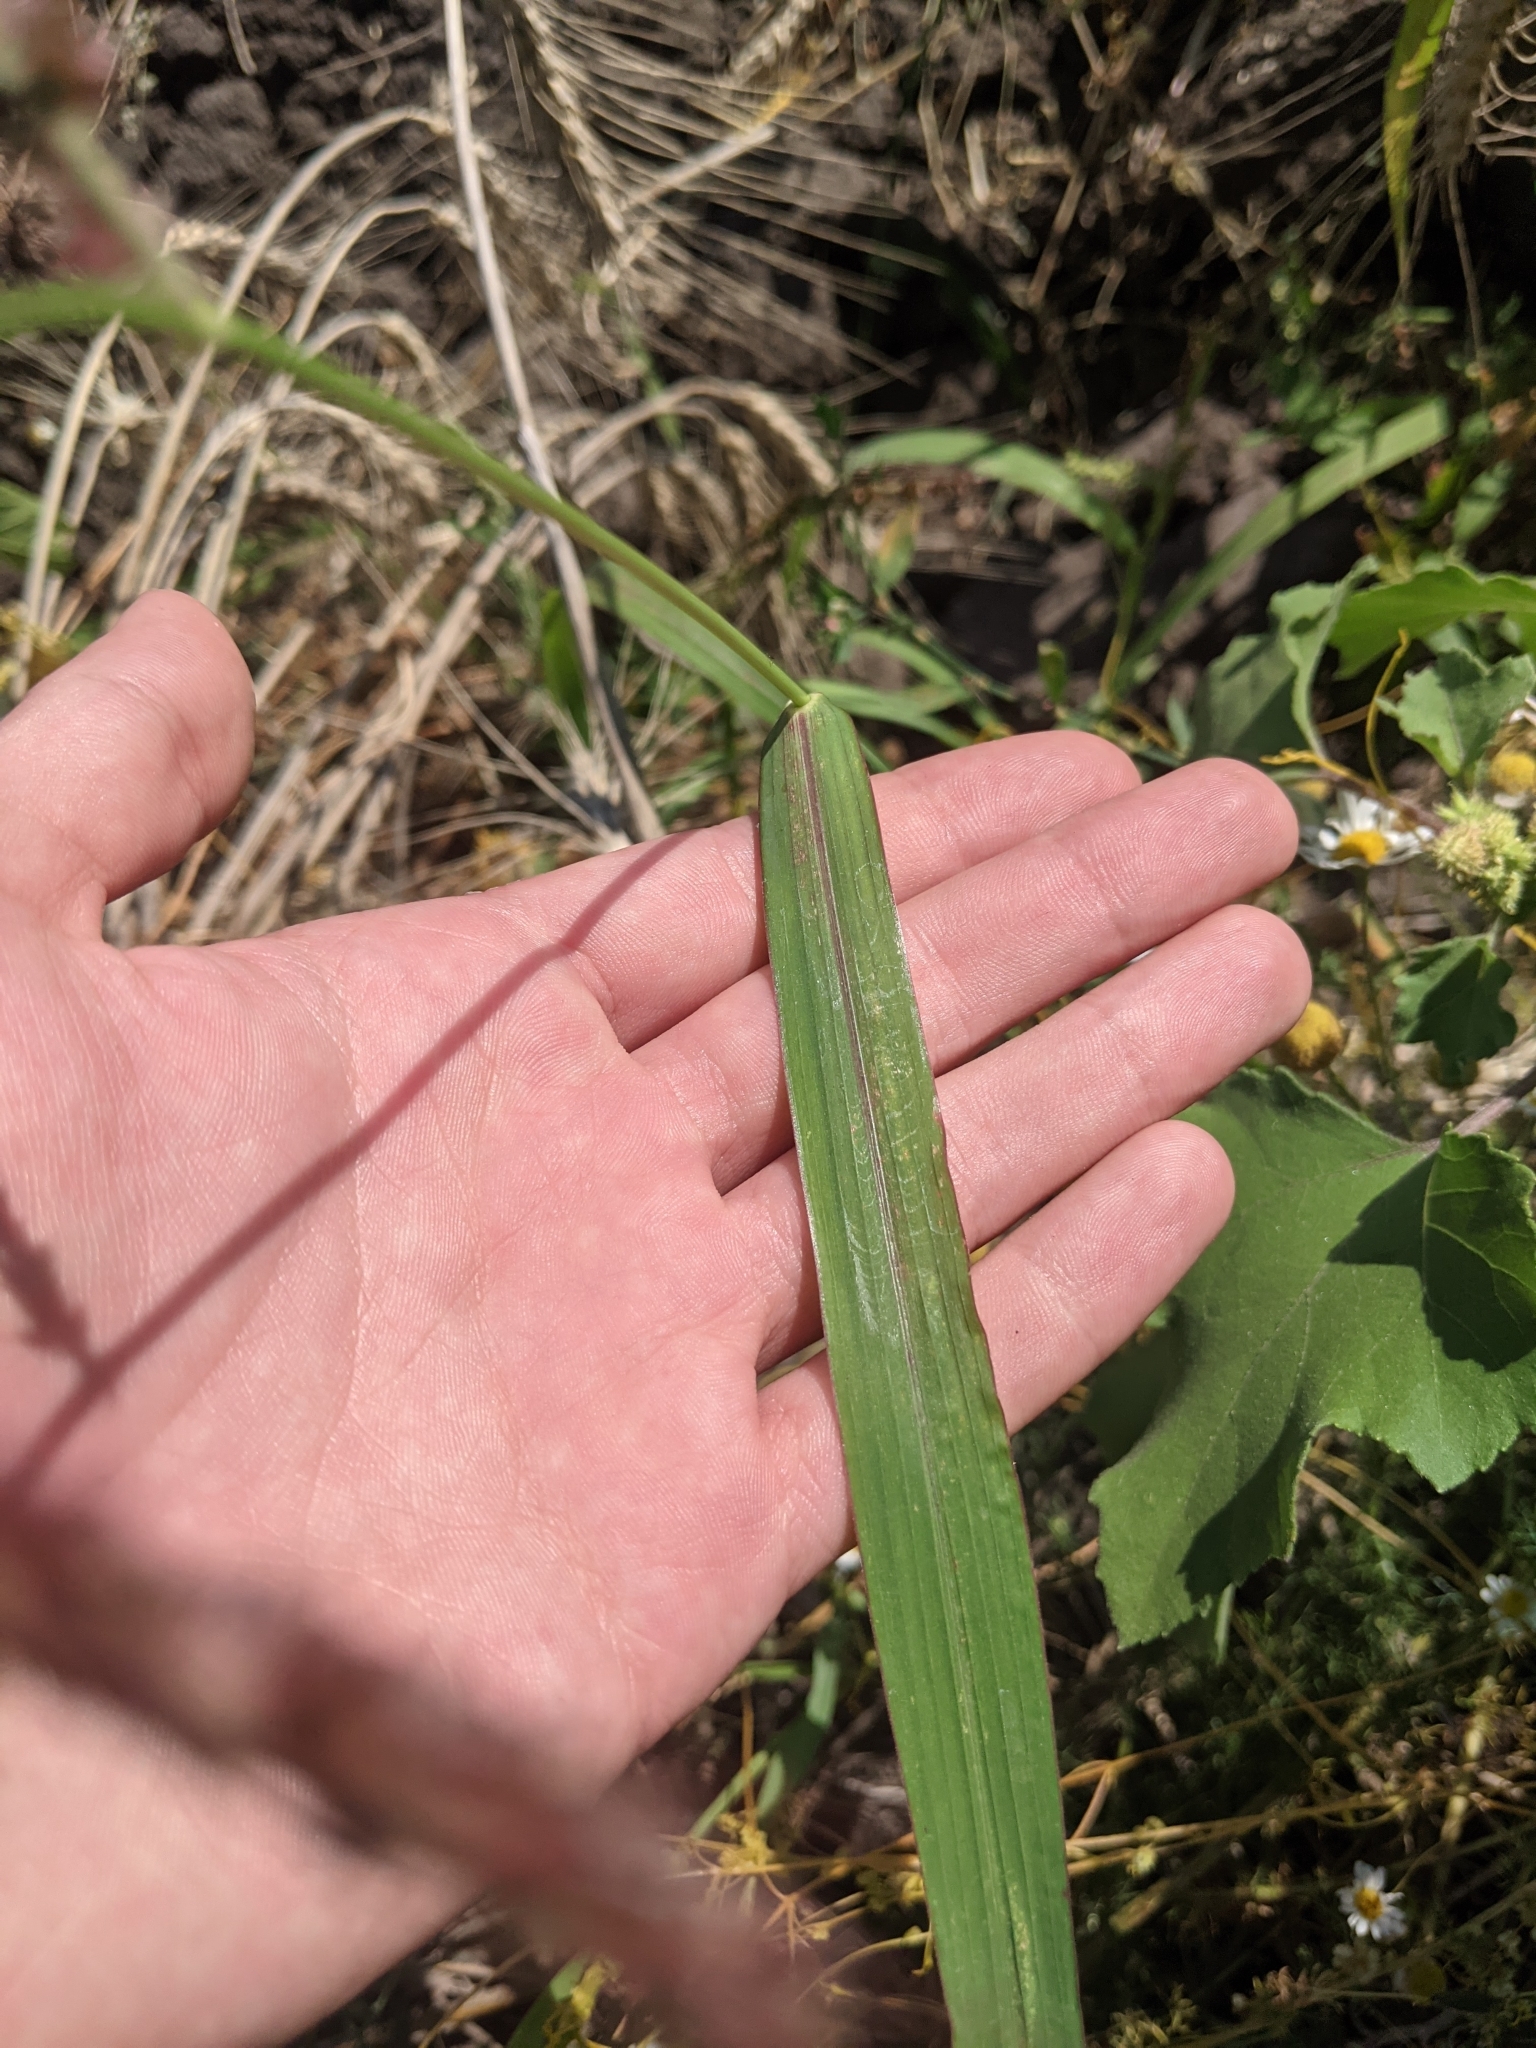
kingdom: Plantae
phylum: Tracheophyta
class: Liliopsida
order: Poales
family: Poaceae
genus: Echinochloa
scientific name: Echinochloa crus-galli
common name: Cockspur
